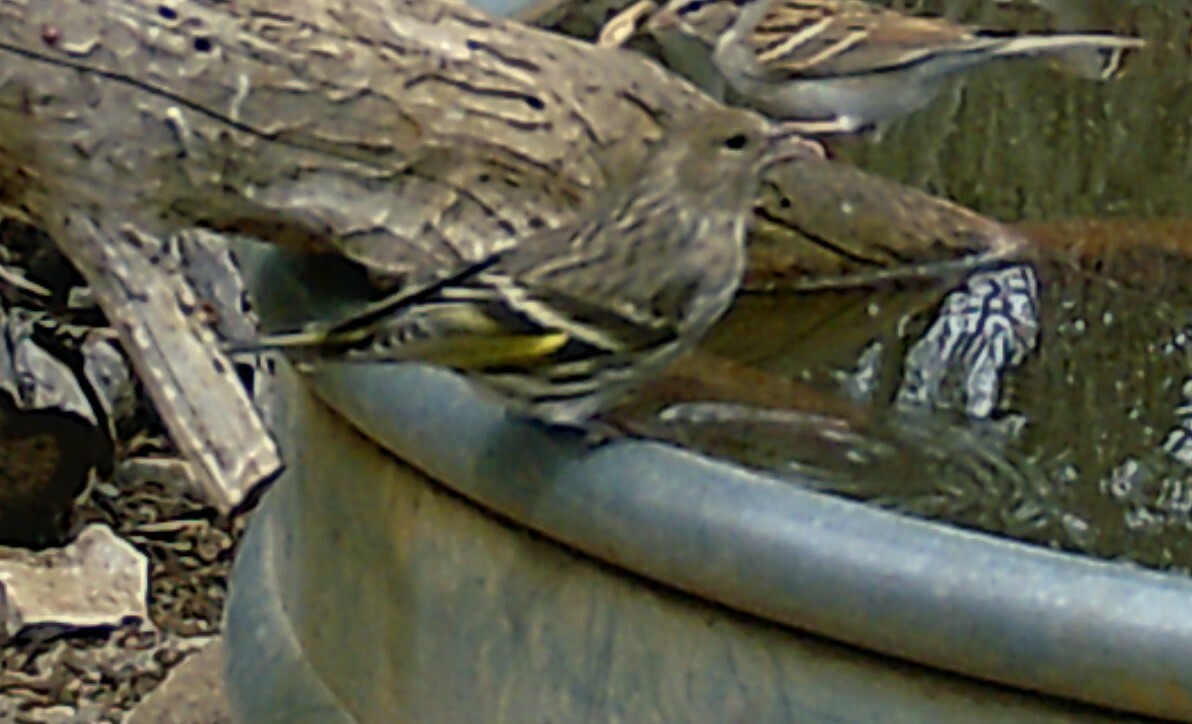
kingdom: Animalia
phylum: Chordata
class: Aves
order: Passeriformes
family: Fringillidae
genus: Spinus
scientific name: Spinus pinus
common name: Pine siskin
